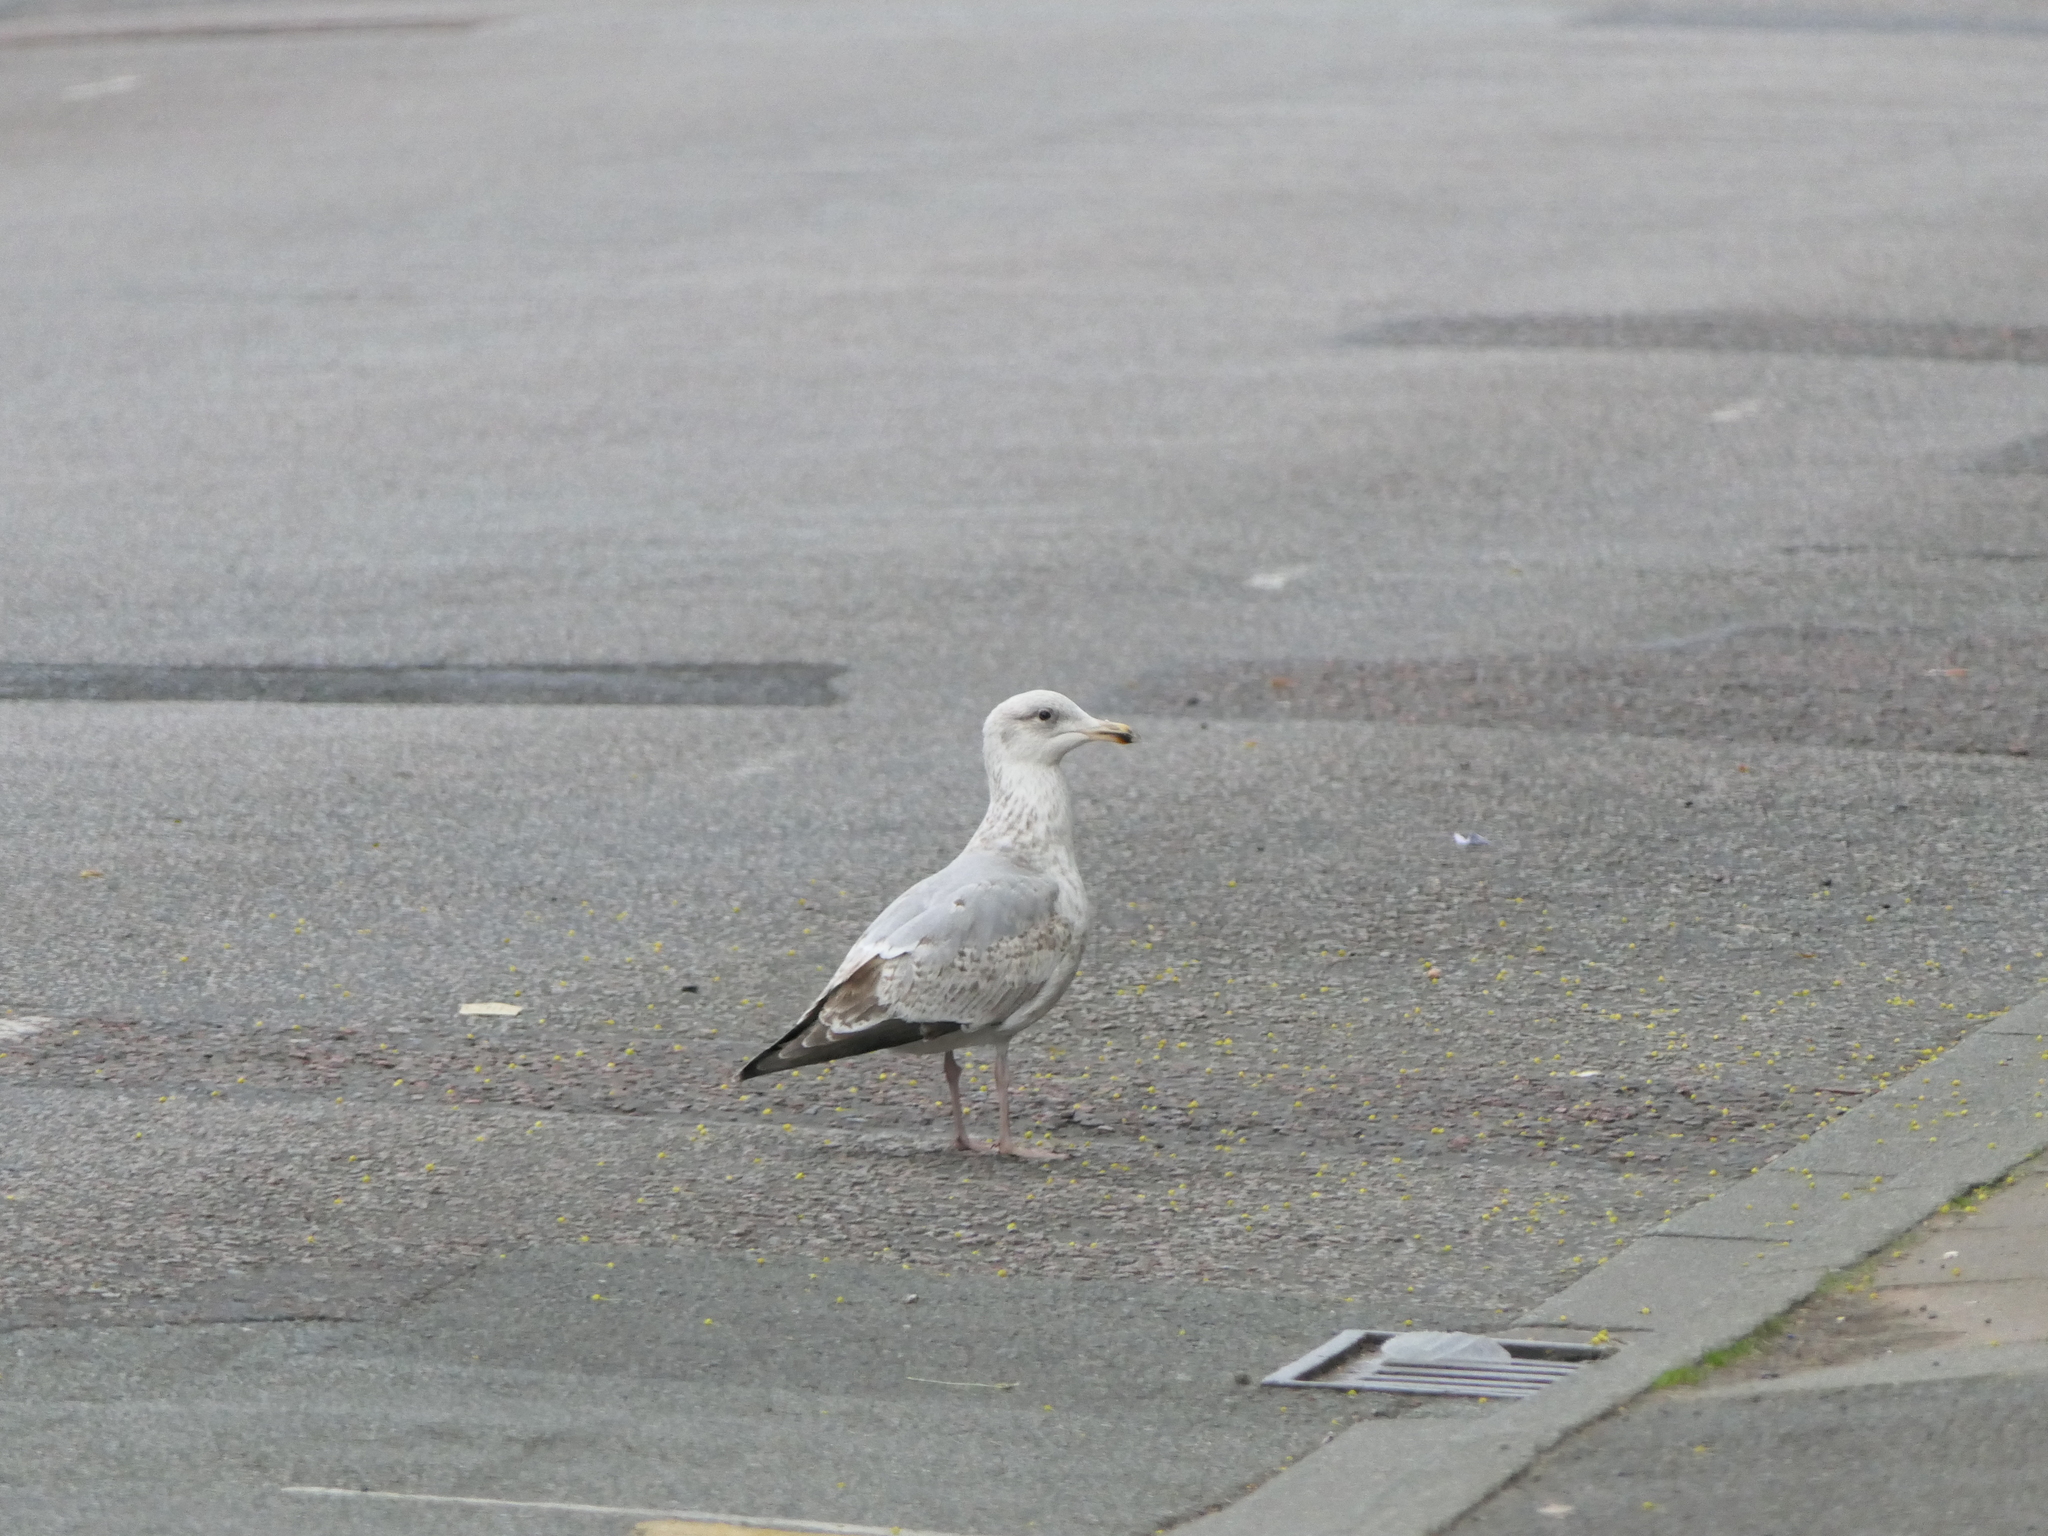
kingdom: Animalia
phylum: Chordata
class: Aves
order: Charadriiformes
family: Laridae
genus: Larus
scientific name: Larus argentatus
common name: Herring gull
